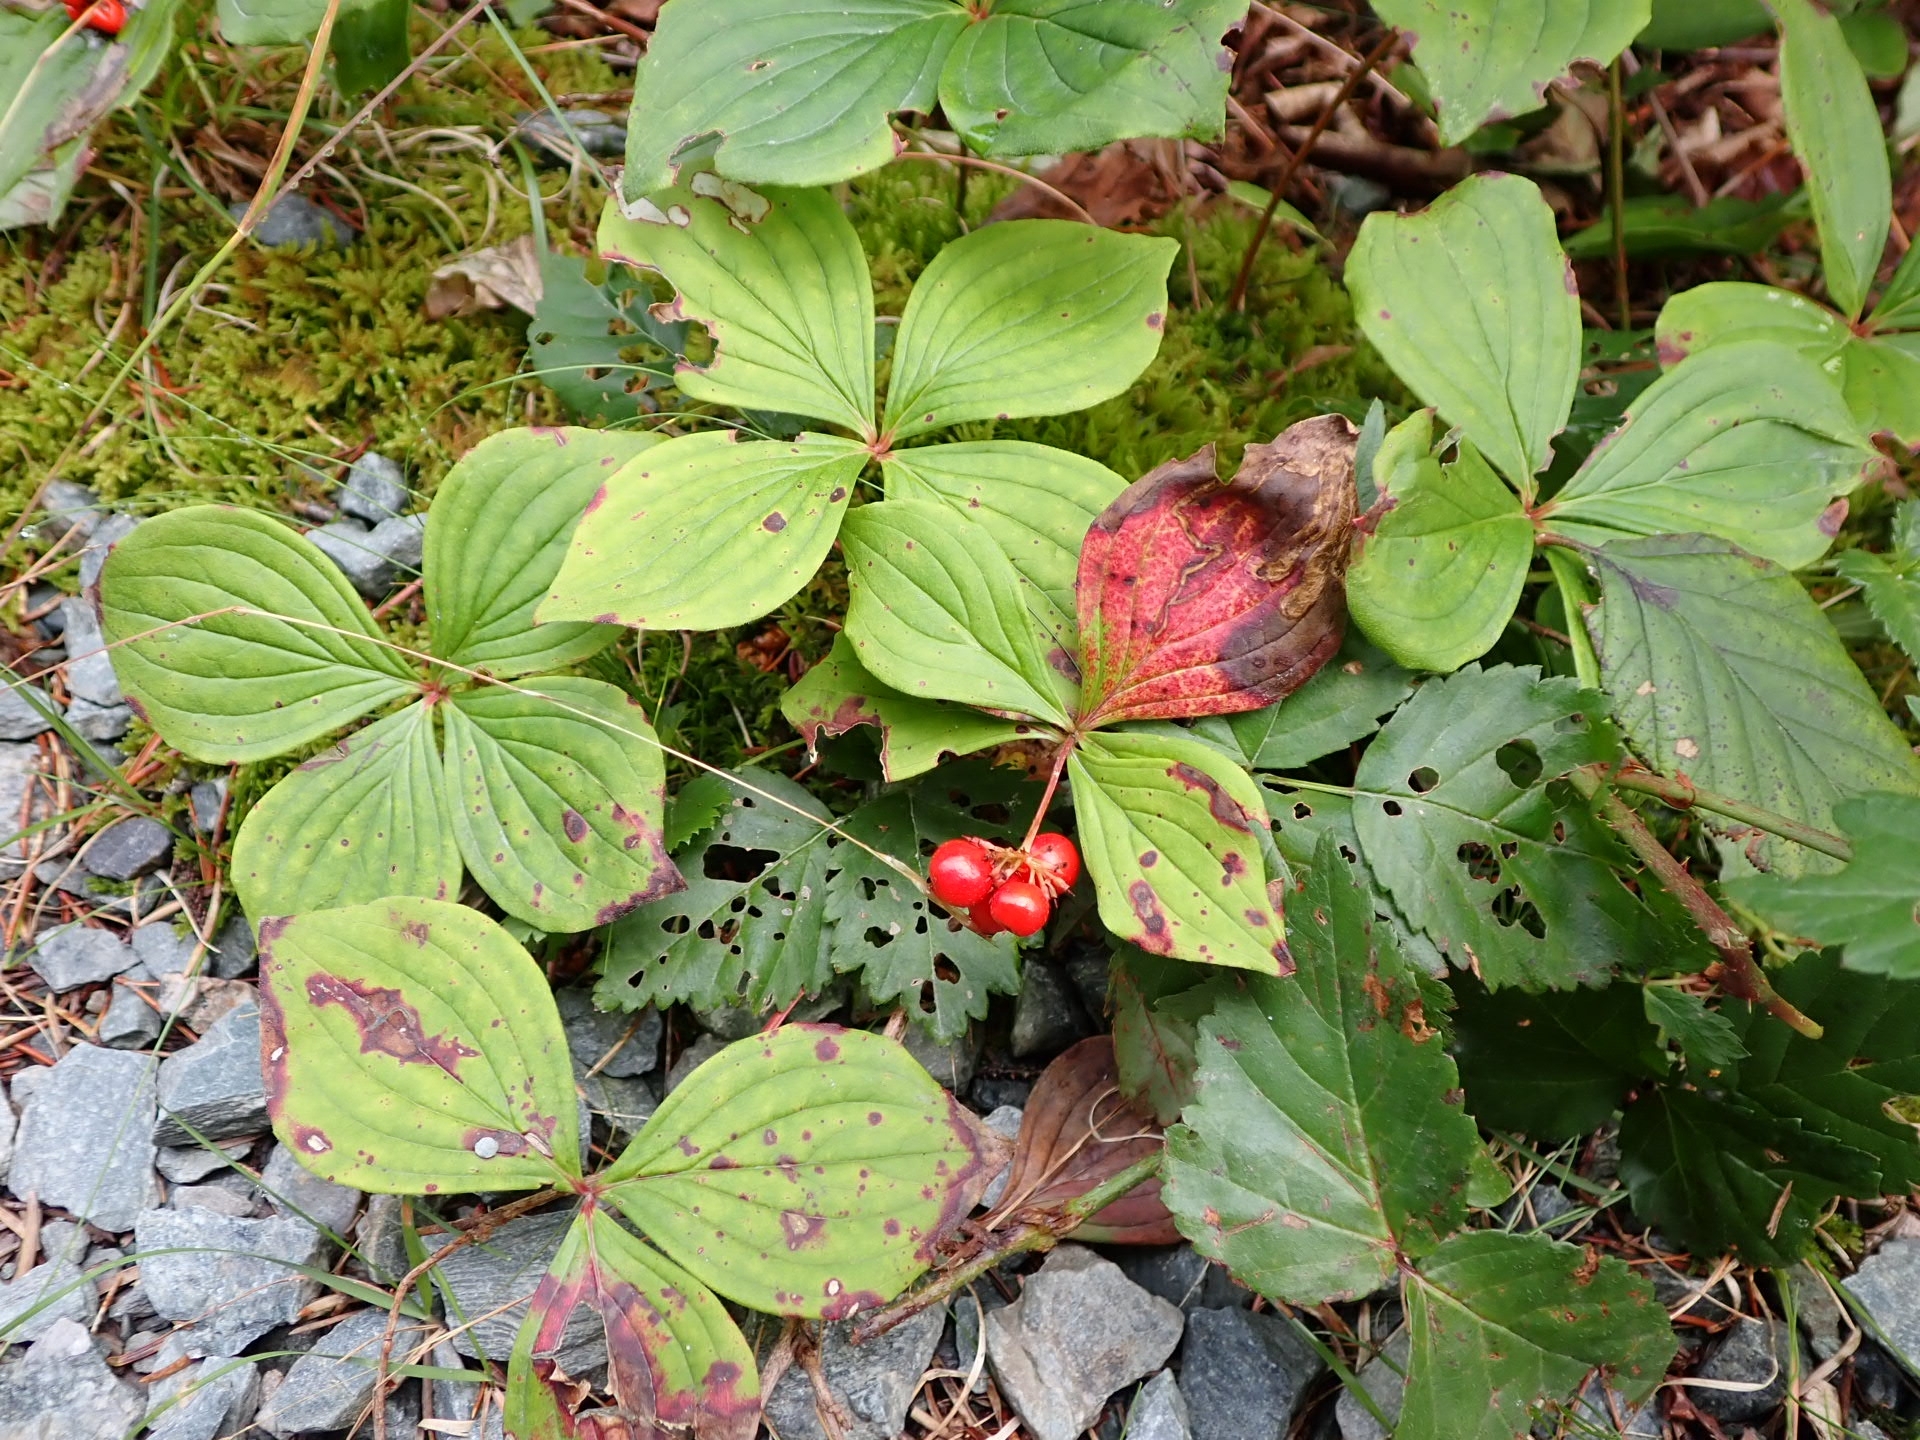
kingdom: Plantae
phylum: Tracheophyta
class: Magnoliopsida
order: Cornales
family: Cornaceae
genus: Cornus
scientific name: Cornus canadensis
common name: Creeping dogwood
